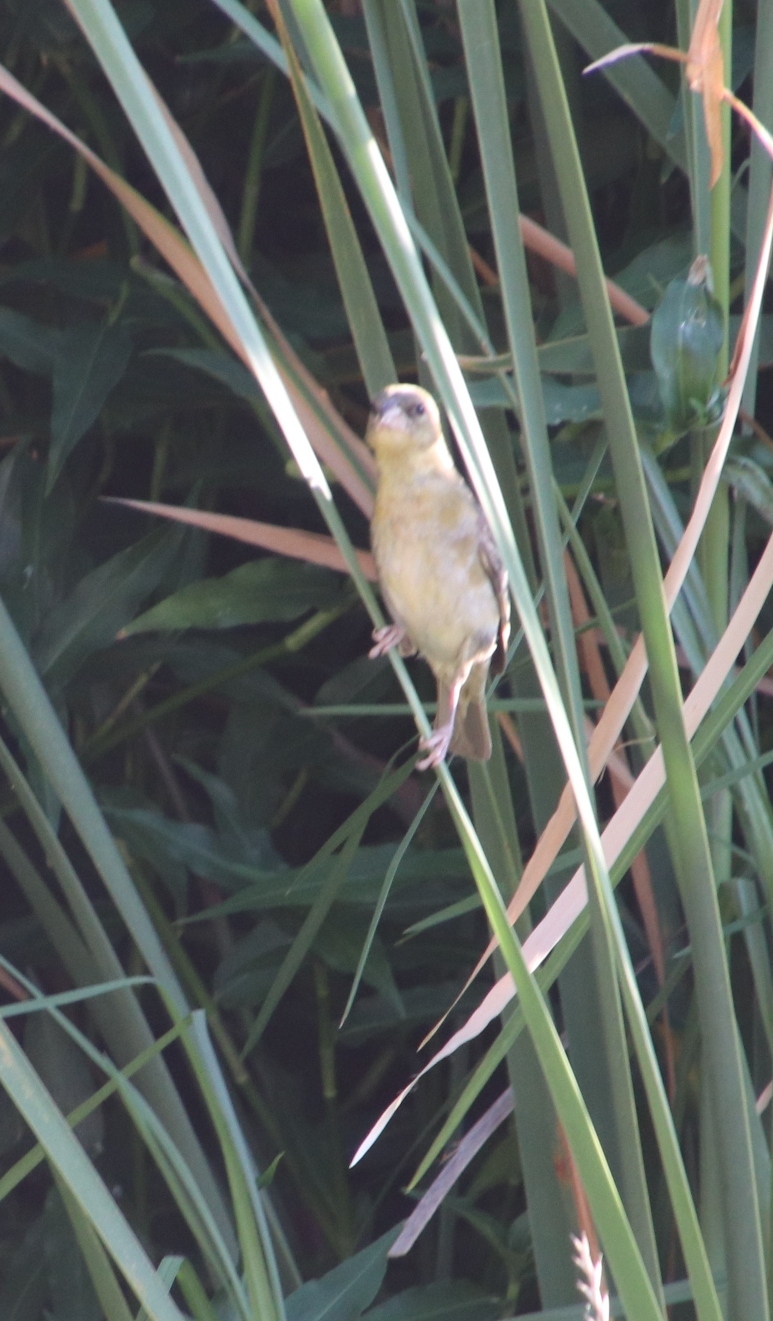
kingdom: Animalia
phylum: Chordata
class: Aves
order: Passeriformes
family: Ploceidae
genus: Ploceus
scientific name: Ploceus capensis
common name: Cape weaver
